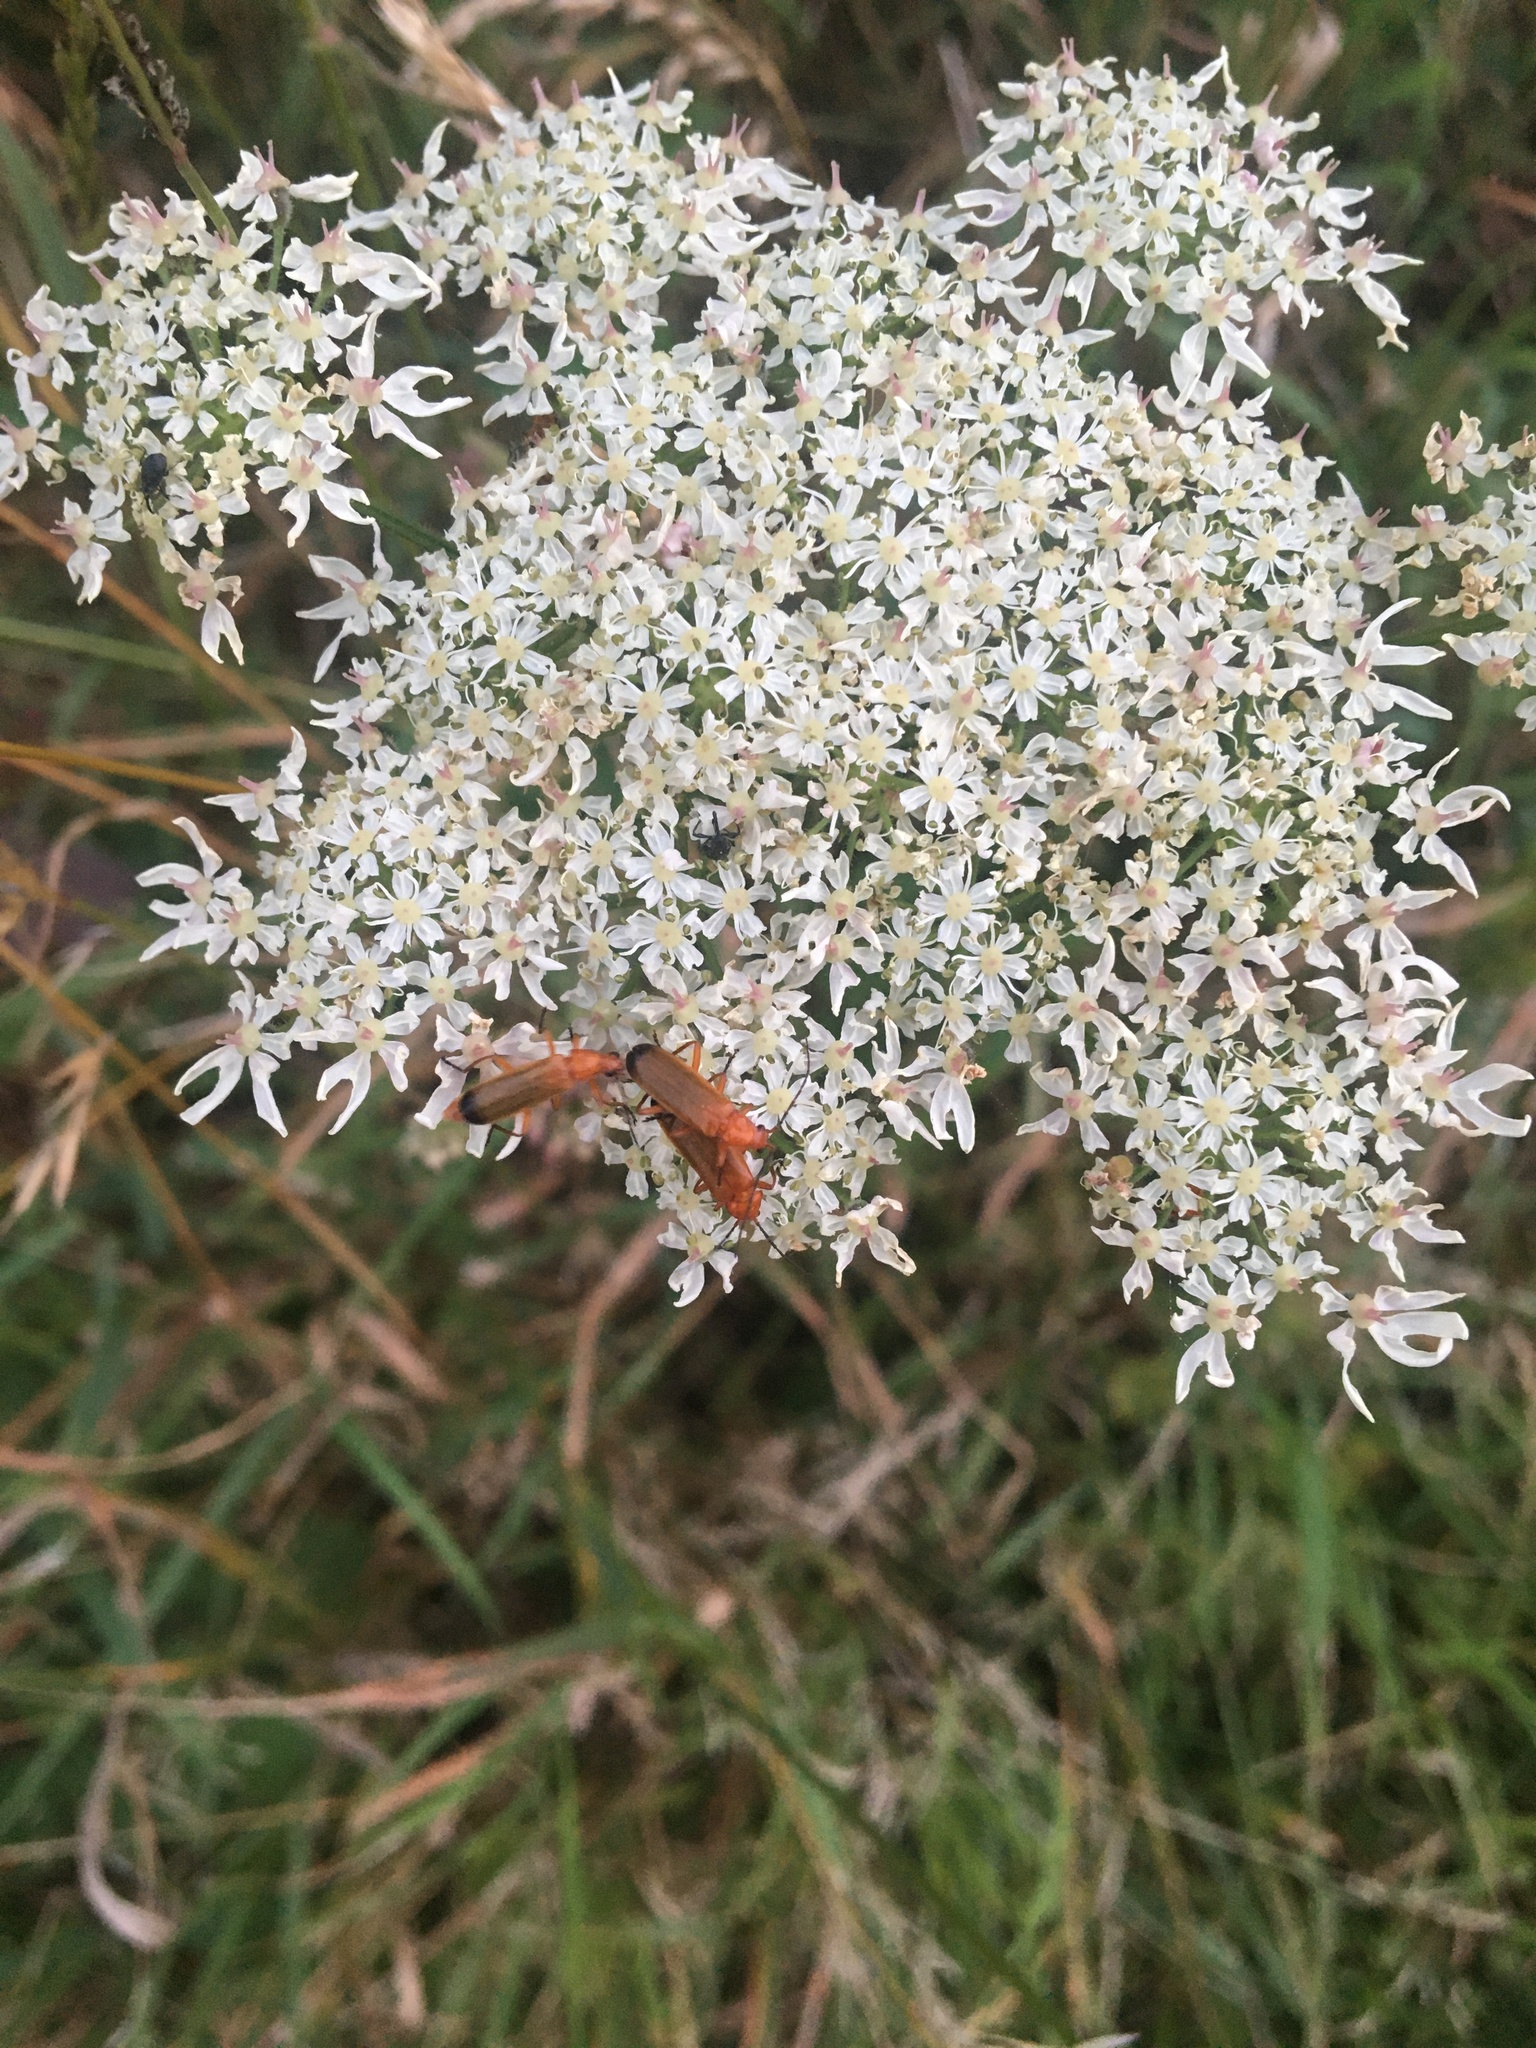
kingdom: Animalia
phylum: Arthropoda
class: Insecta
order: Coleoptera
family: Cantharidae
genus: Rhagonycha
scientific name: Rhagonycha fulva
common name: Common red soldier beetle
